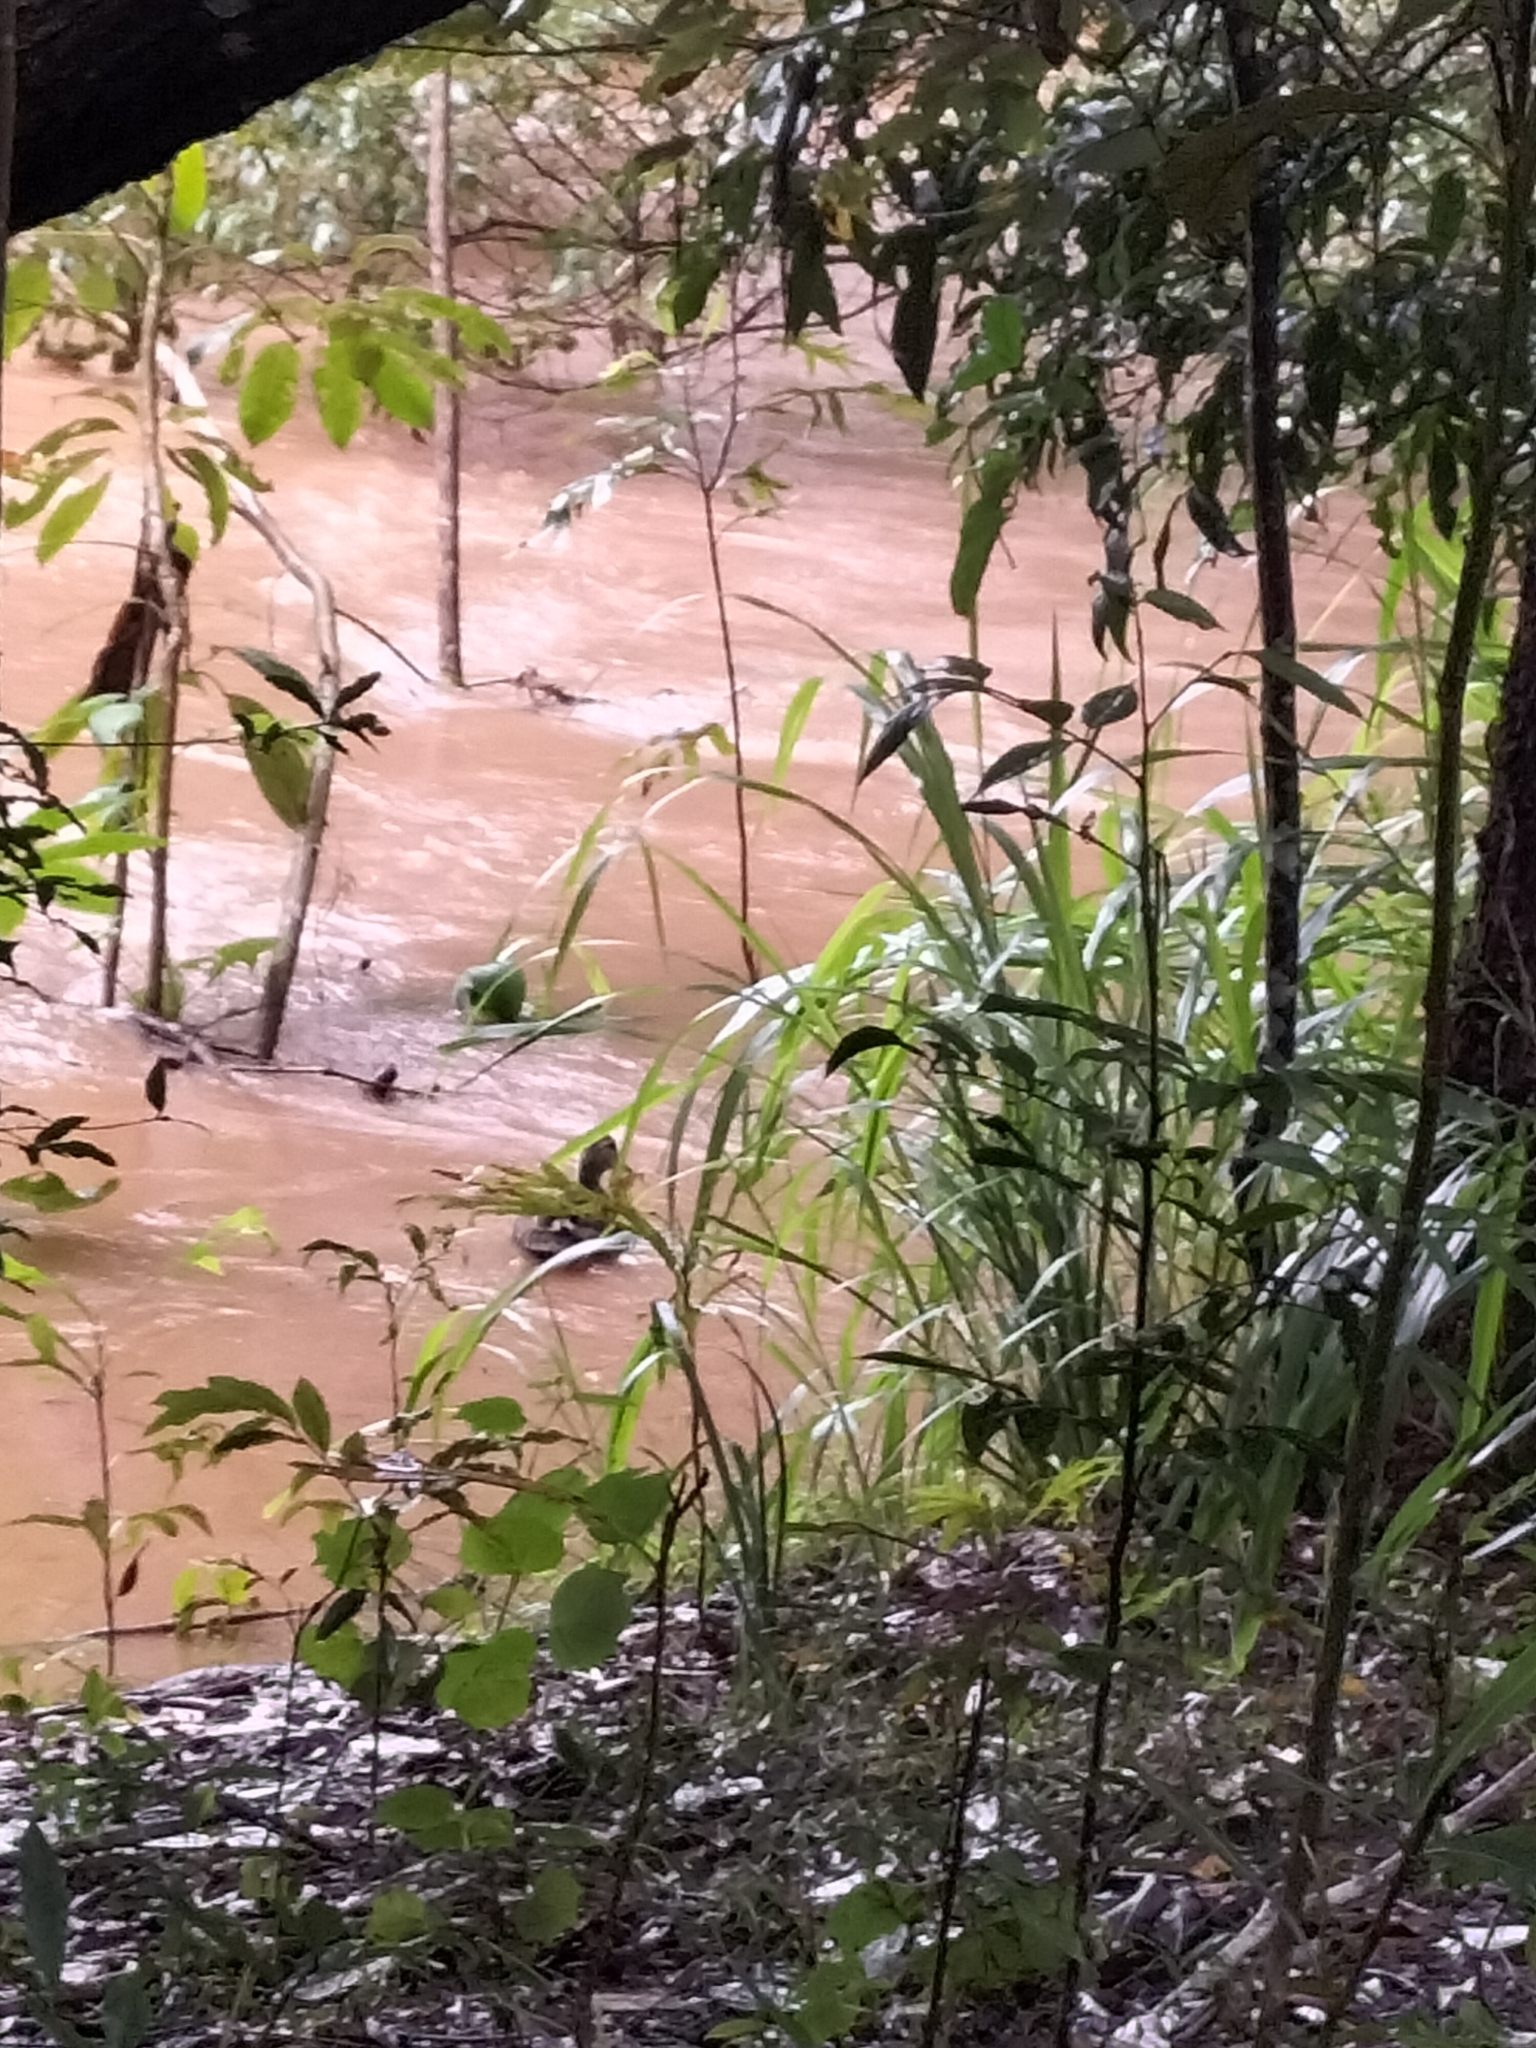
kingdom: Animalia
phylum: Chordata
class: Aves
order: Anseriformes
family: Anatidae
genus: Anas
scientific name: Anas superciliosa
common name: Pacific black duck
